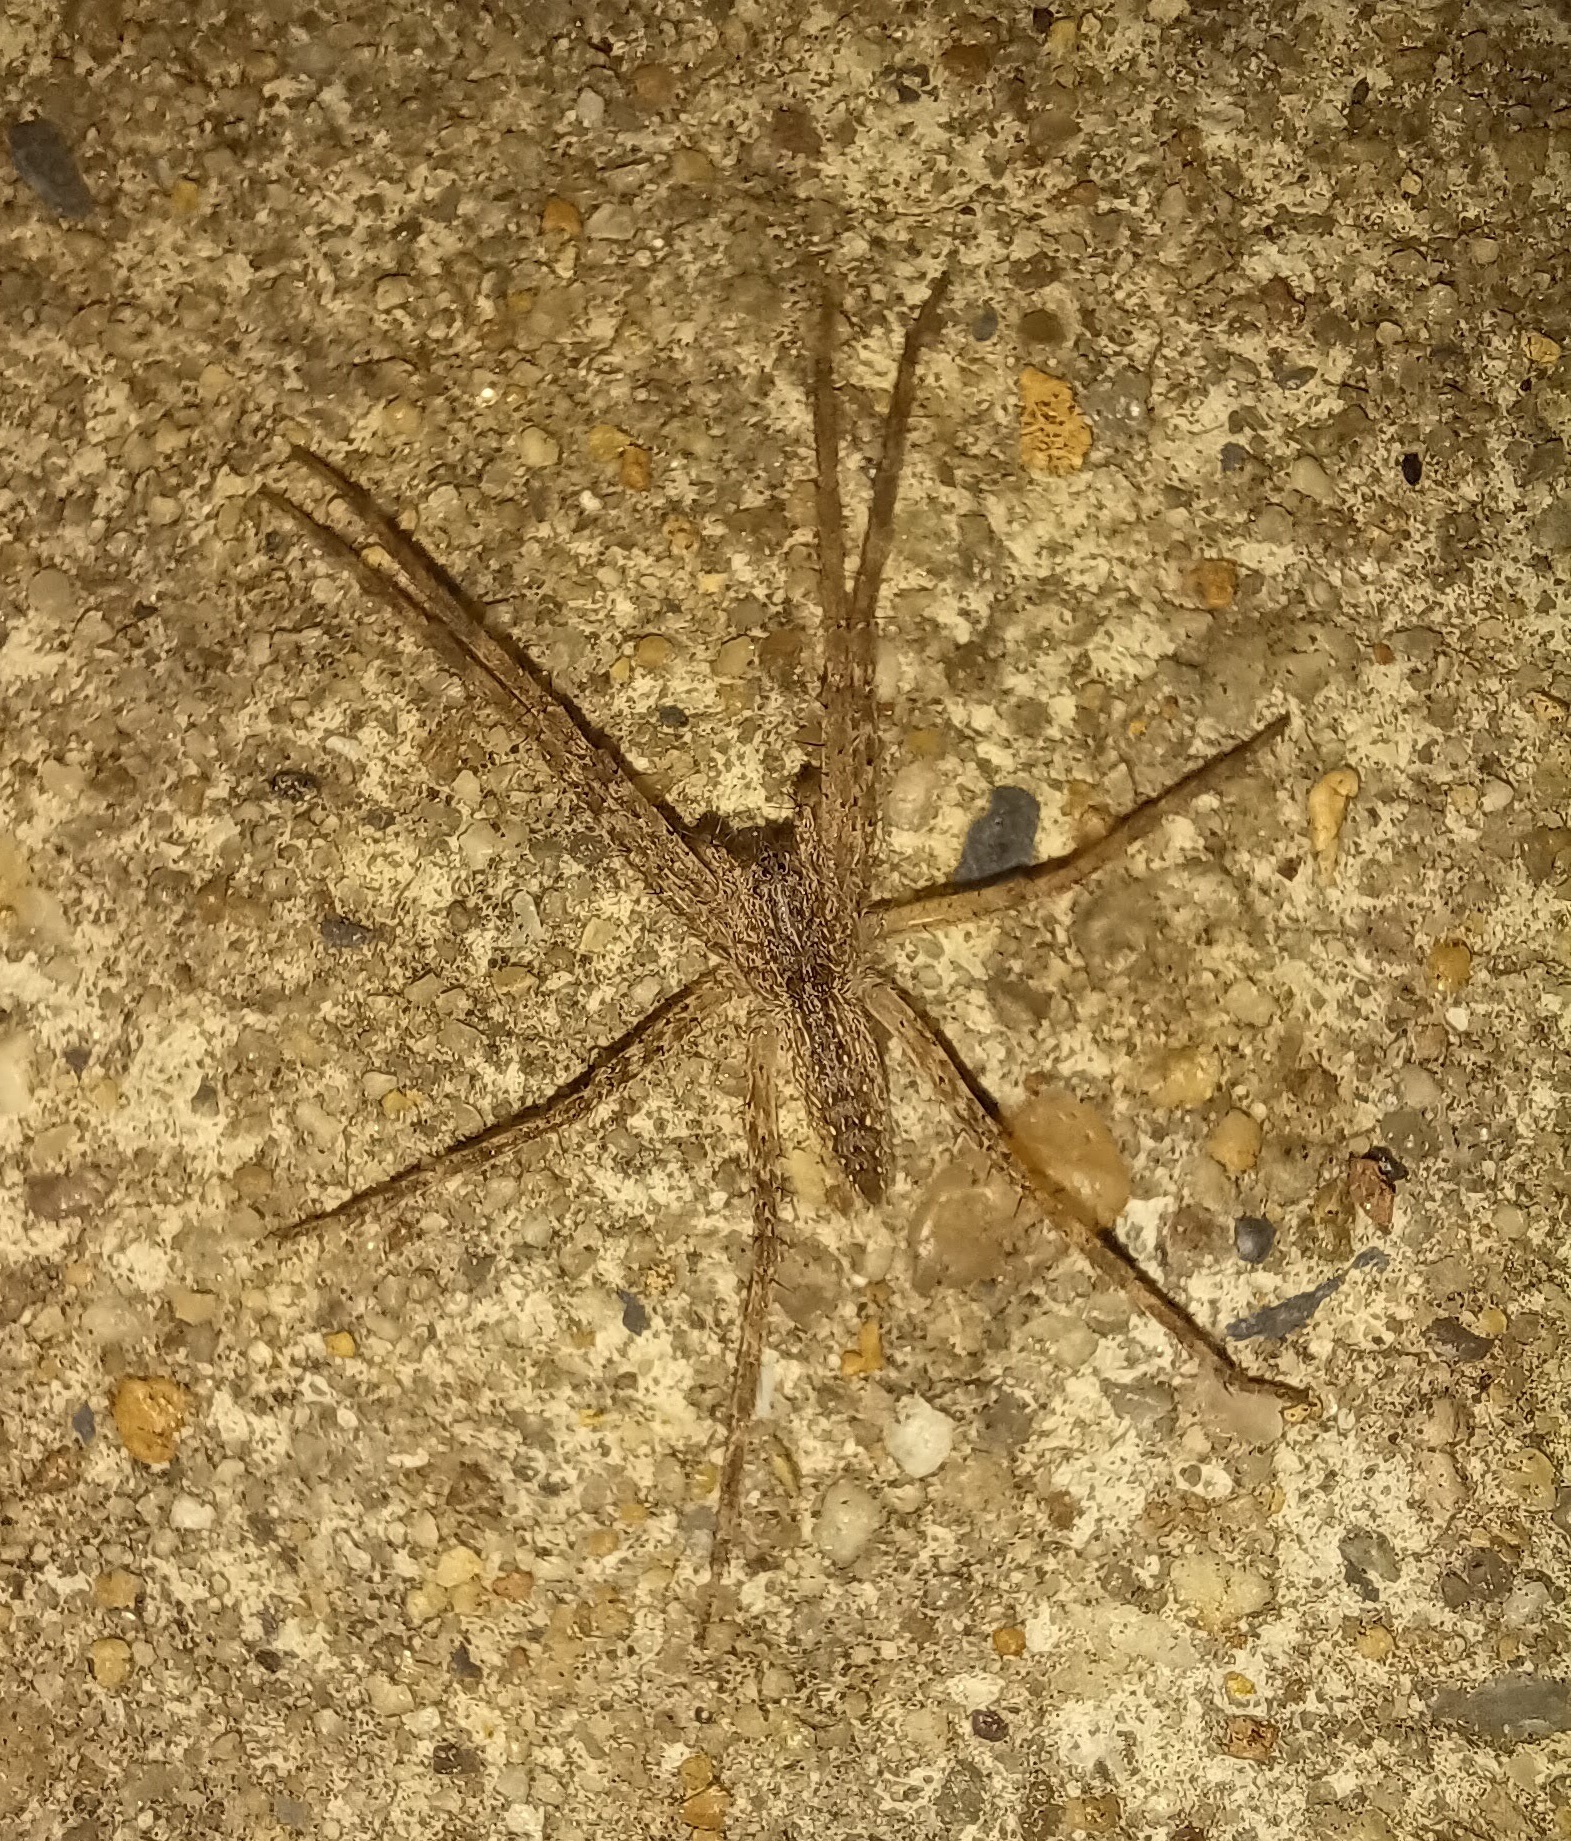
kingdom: Animalia
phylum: Arthropoda
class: Arachnida
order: Araneae
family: Pisauridae
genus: Pisaurina
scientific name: Pisaurina mira
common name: American nursery web spider
